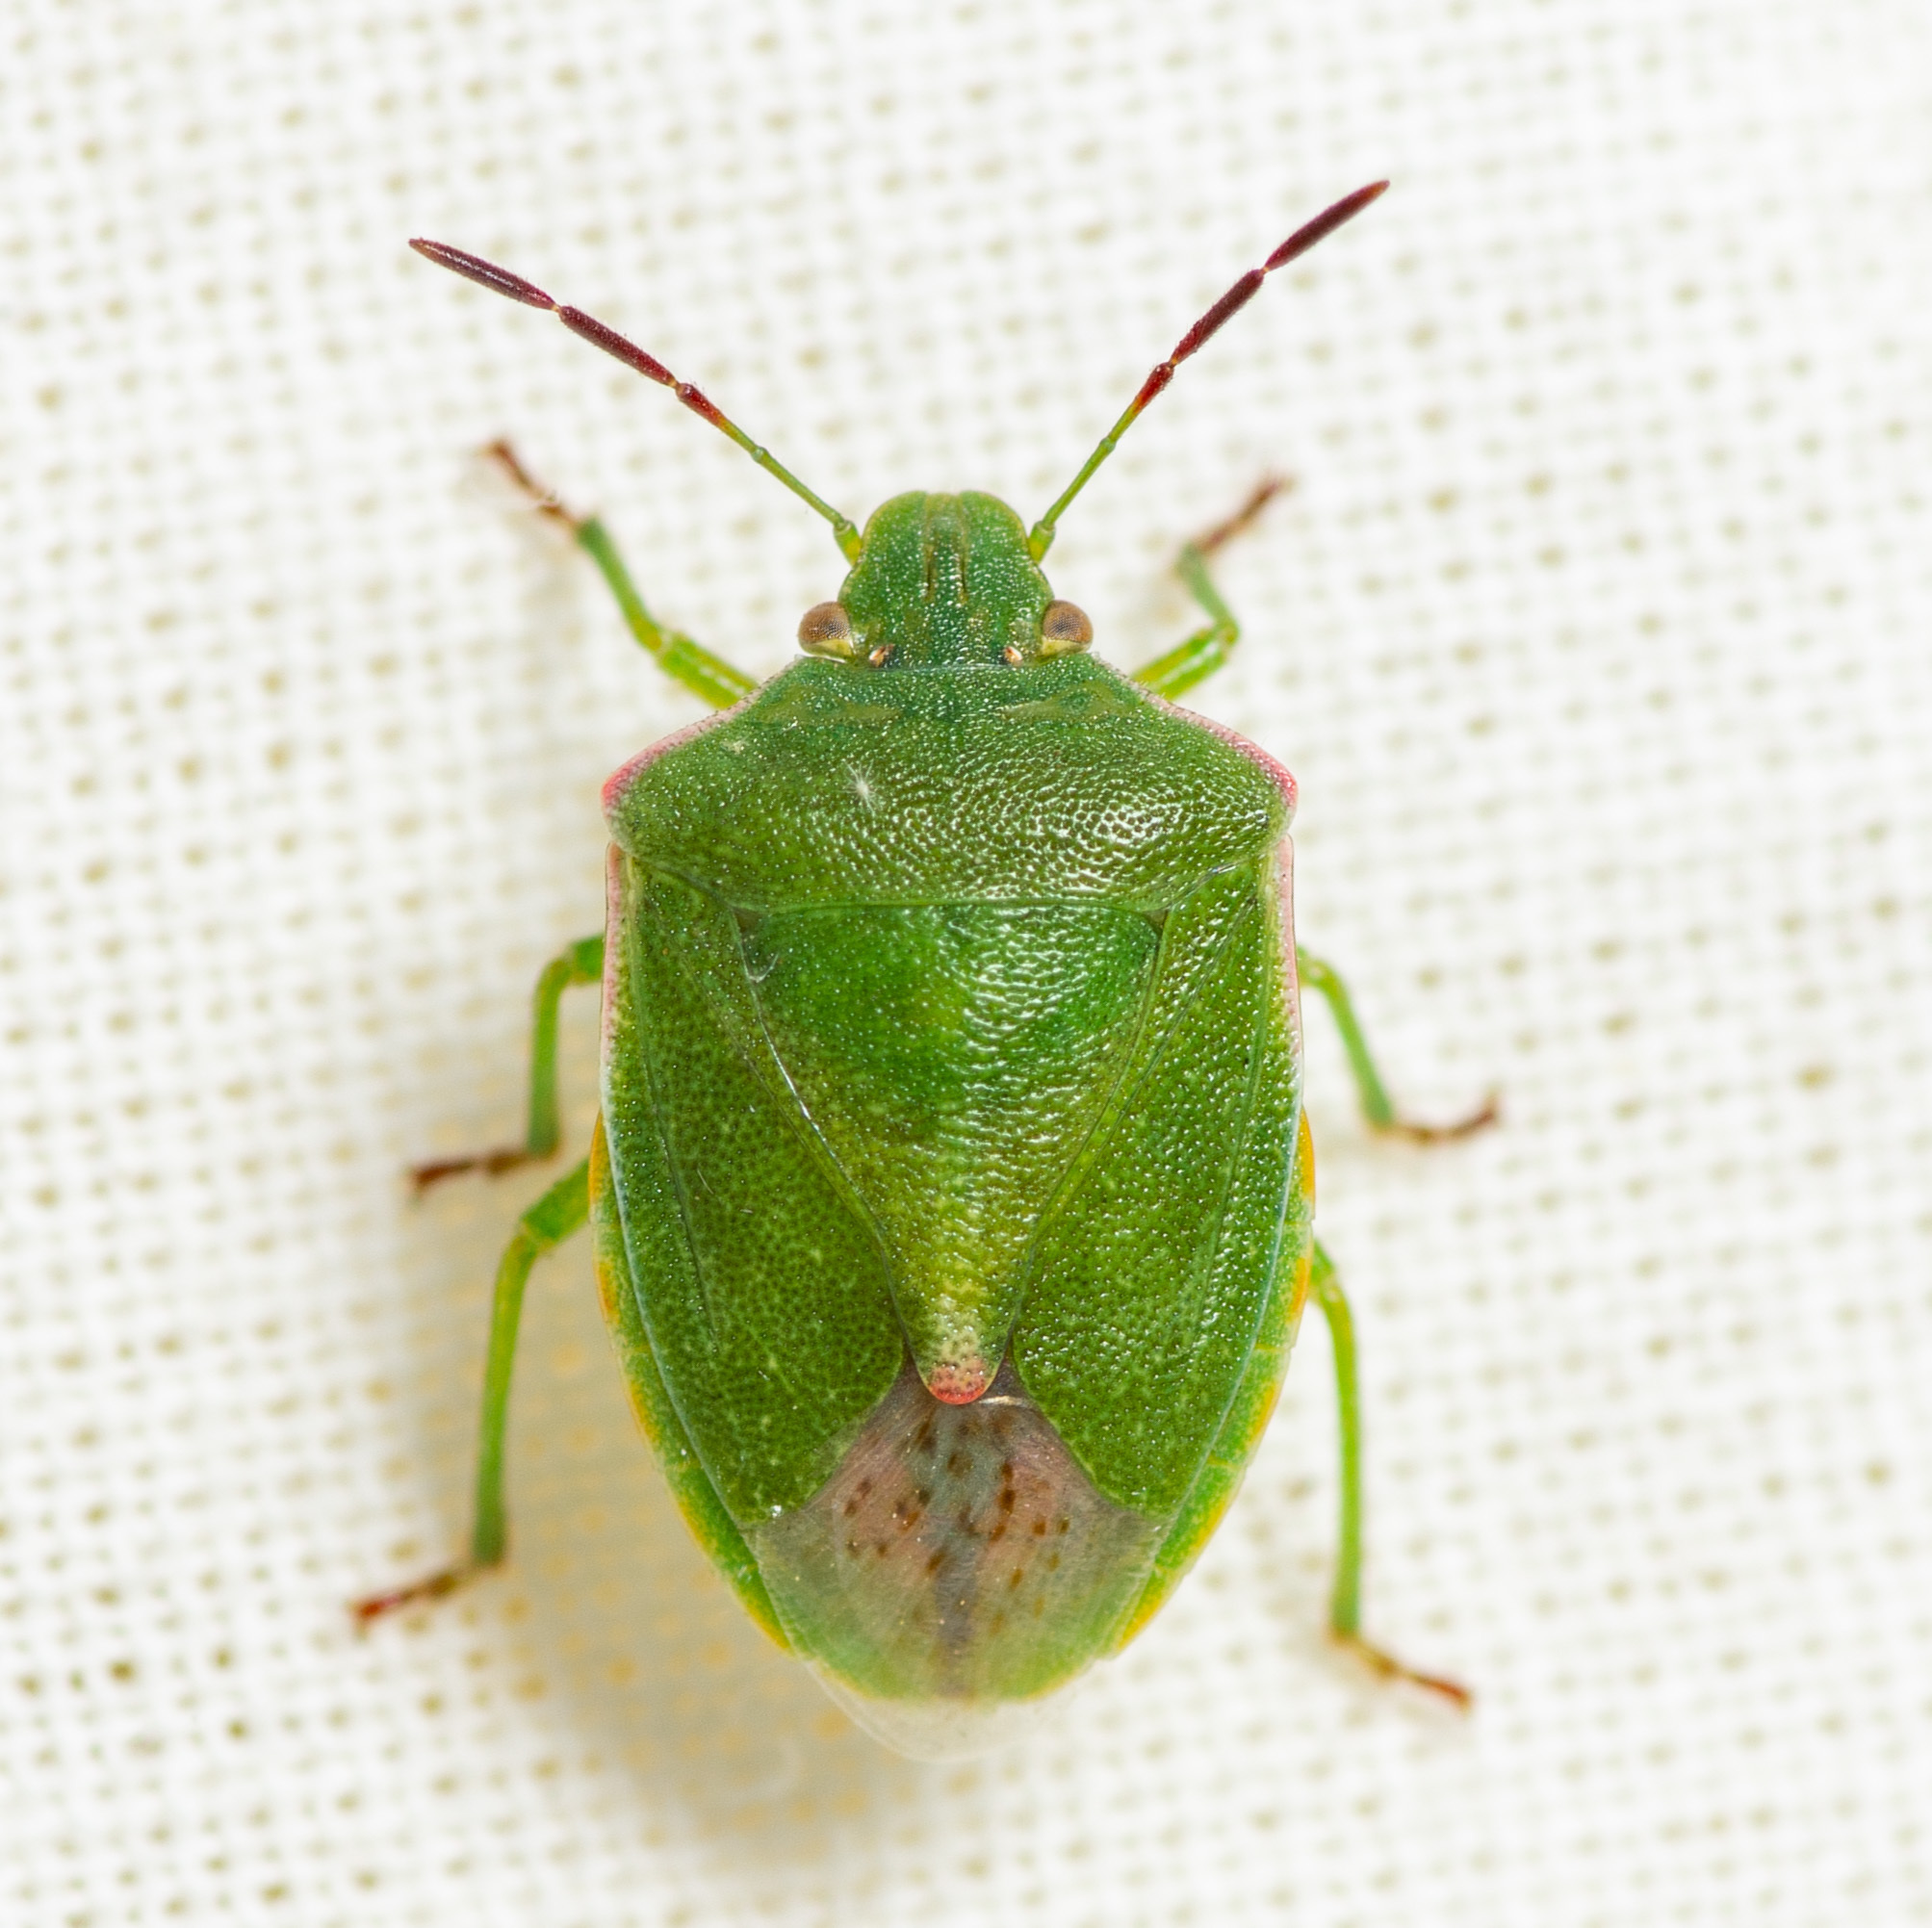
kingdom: Animalia
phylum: Arthropoda
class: Insecta
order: Hemiptera
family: Pentatomidae
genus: Thyanta
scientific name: Thyanta custator
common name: Stink bug
